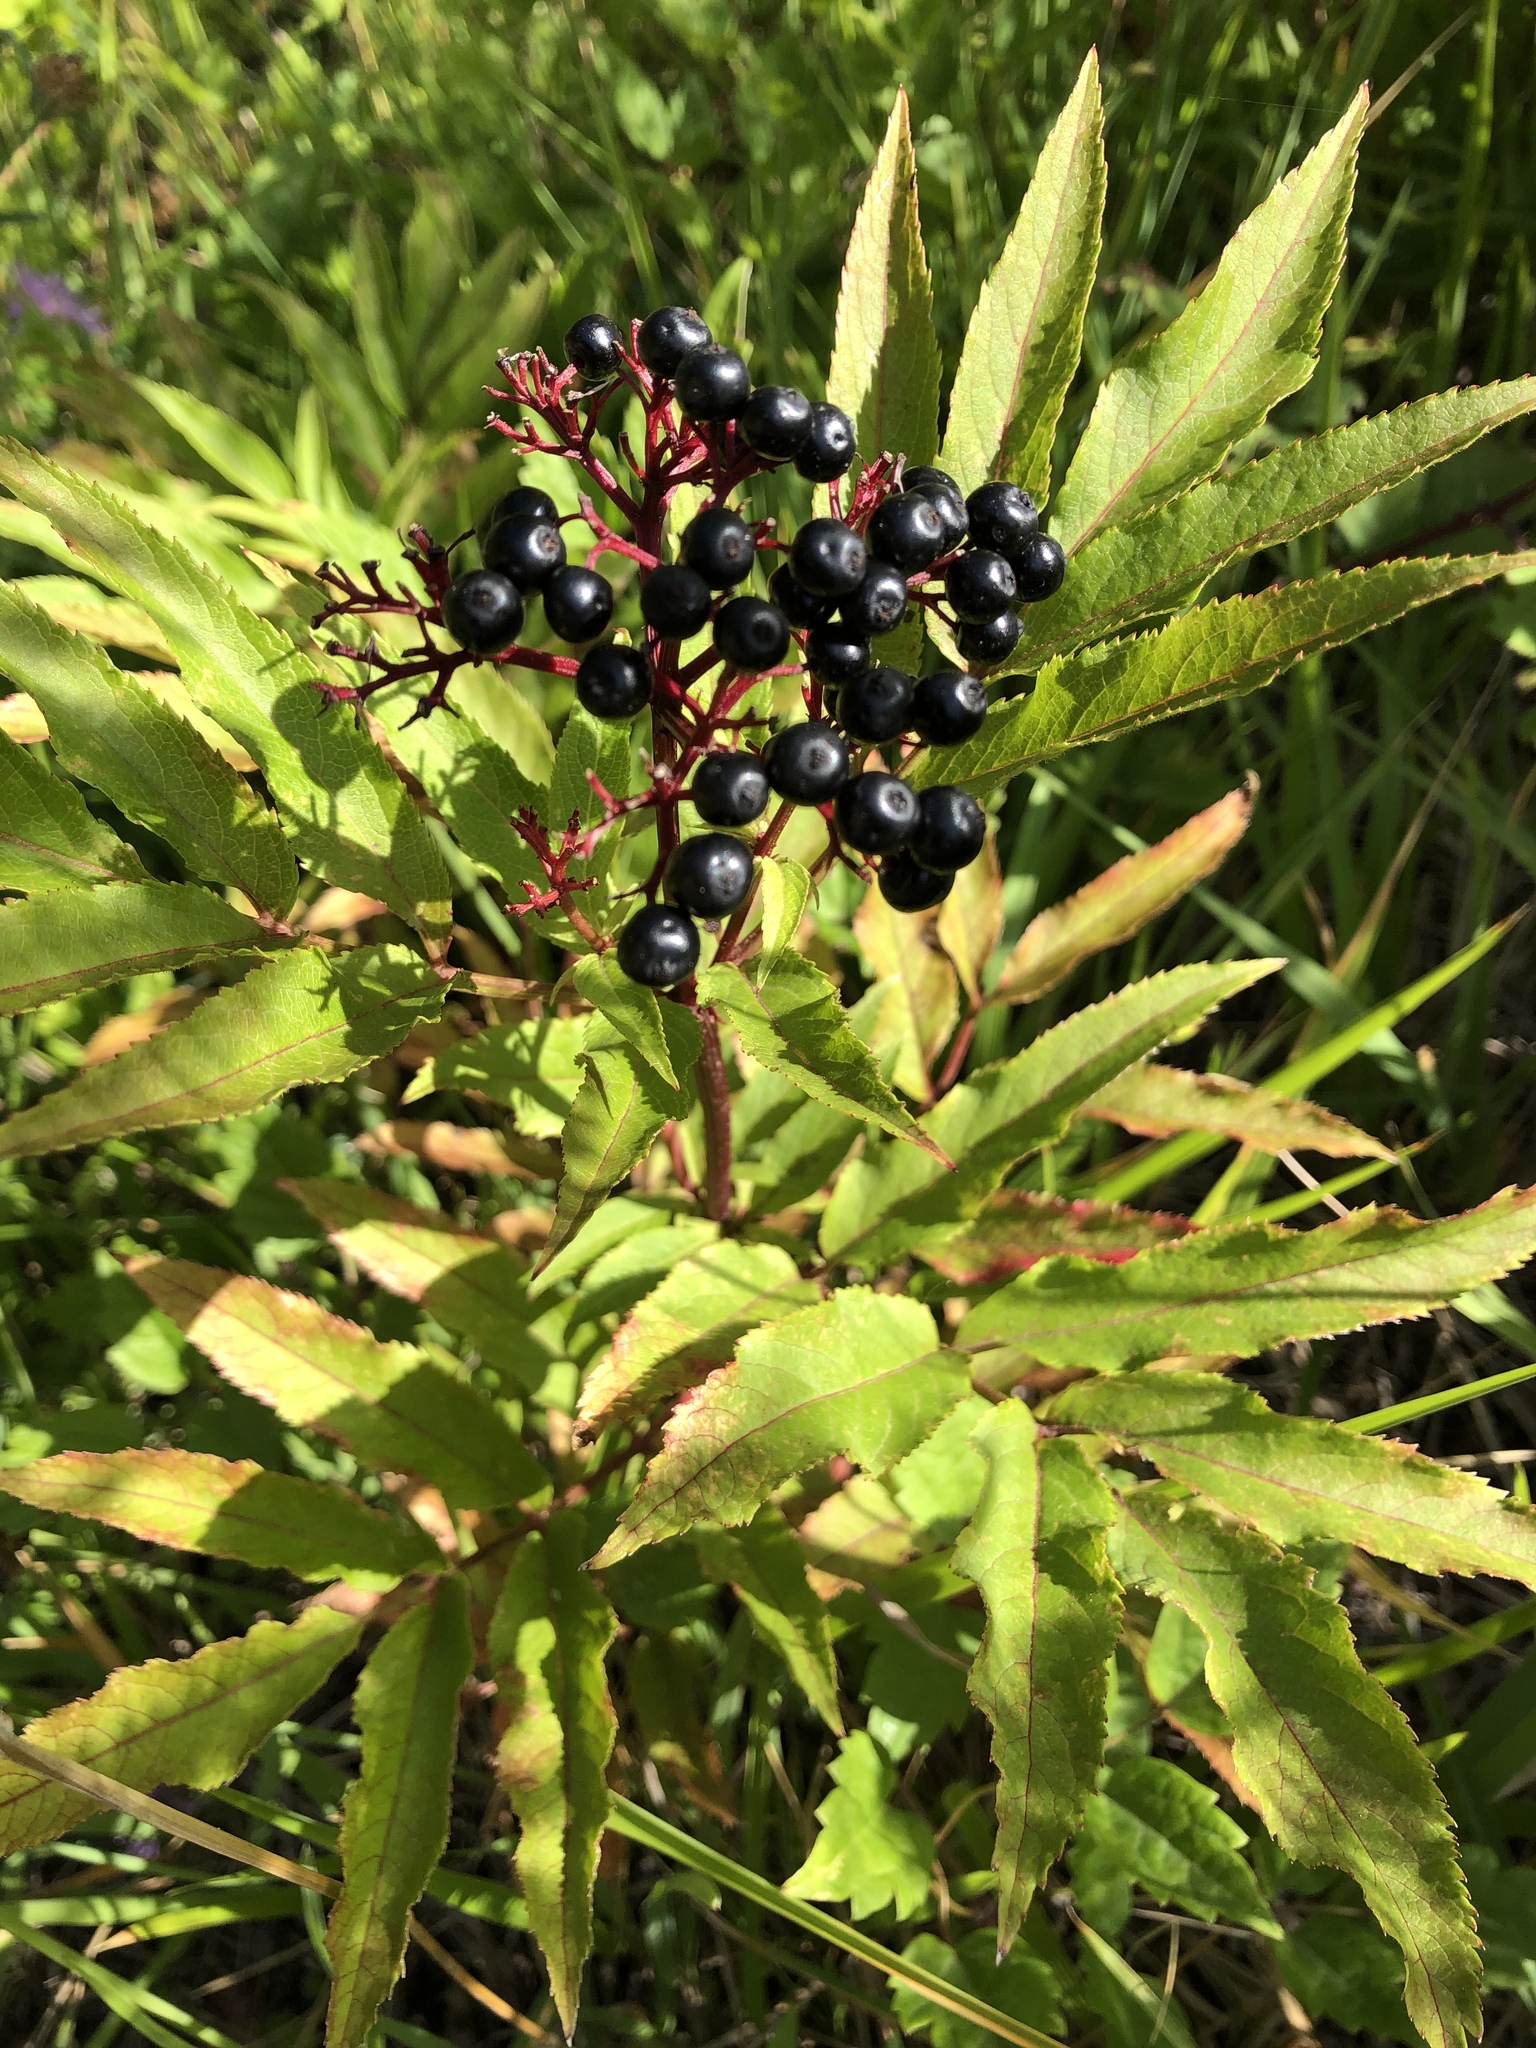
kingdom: Plantae
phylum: Tracheophyta
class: Magnoliopsida
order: Dipsacales
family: Viburnaceae
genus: Sambucus
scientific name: Sambucus ebulus
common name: Dwarf elder
